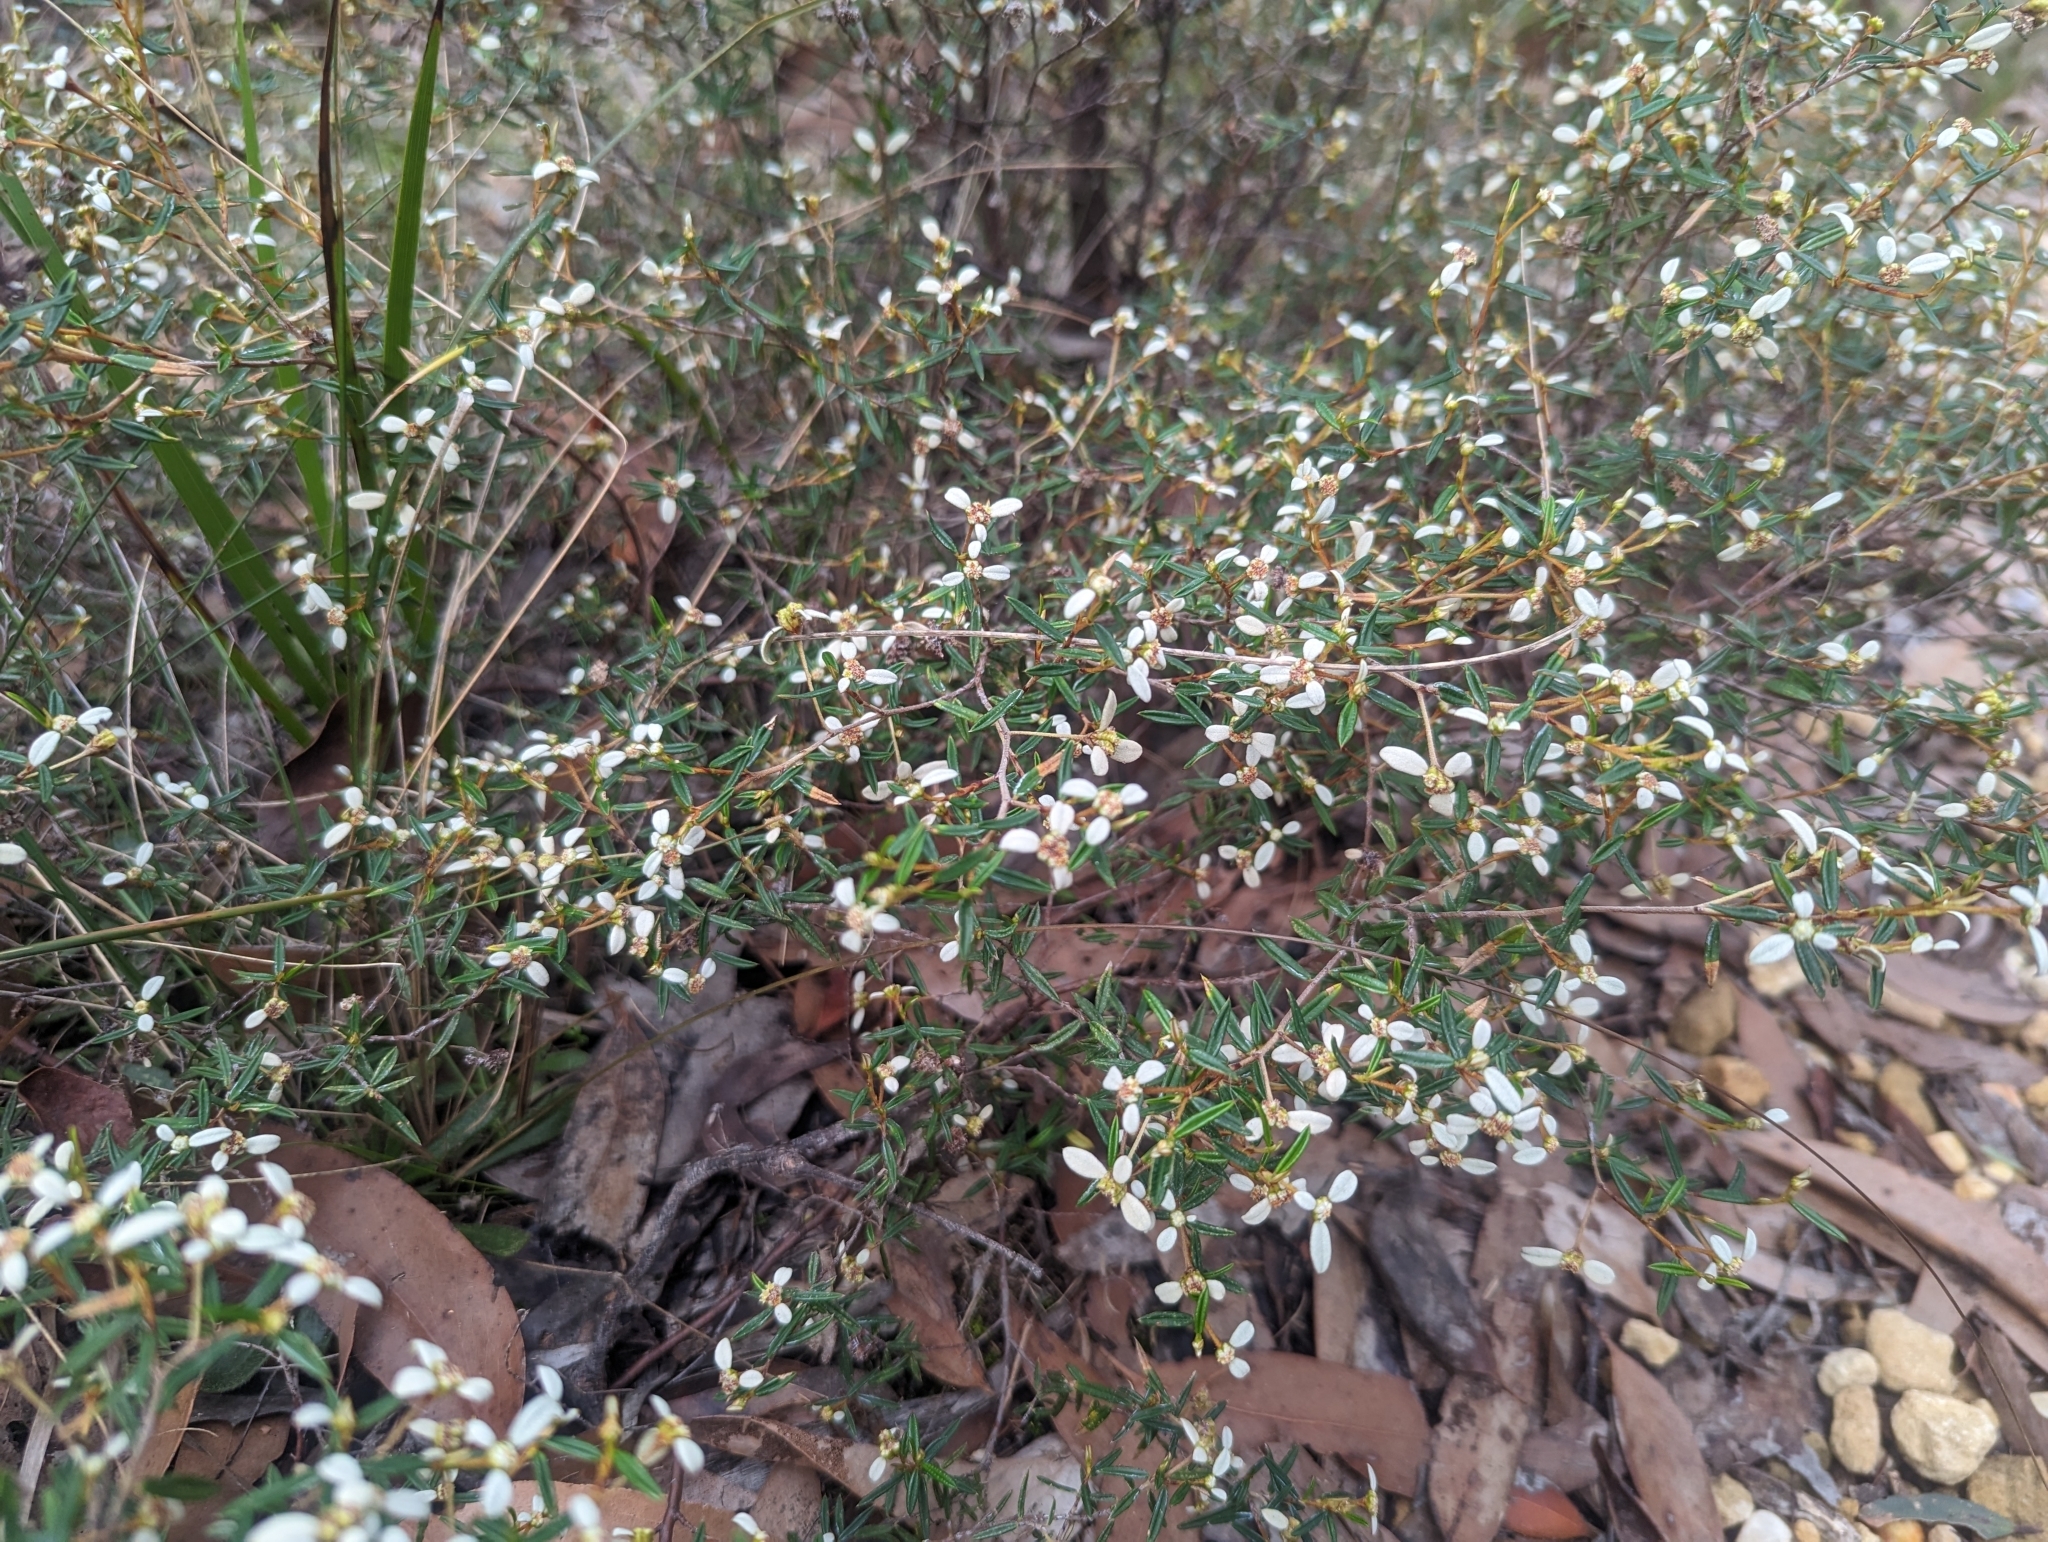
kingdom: Plantae
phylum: Tracheophyta
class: Magnoliopsida
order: Rosales
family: Rhamnaceae
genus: Spyridium
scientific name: Spyridium vexilliferum
